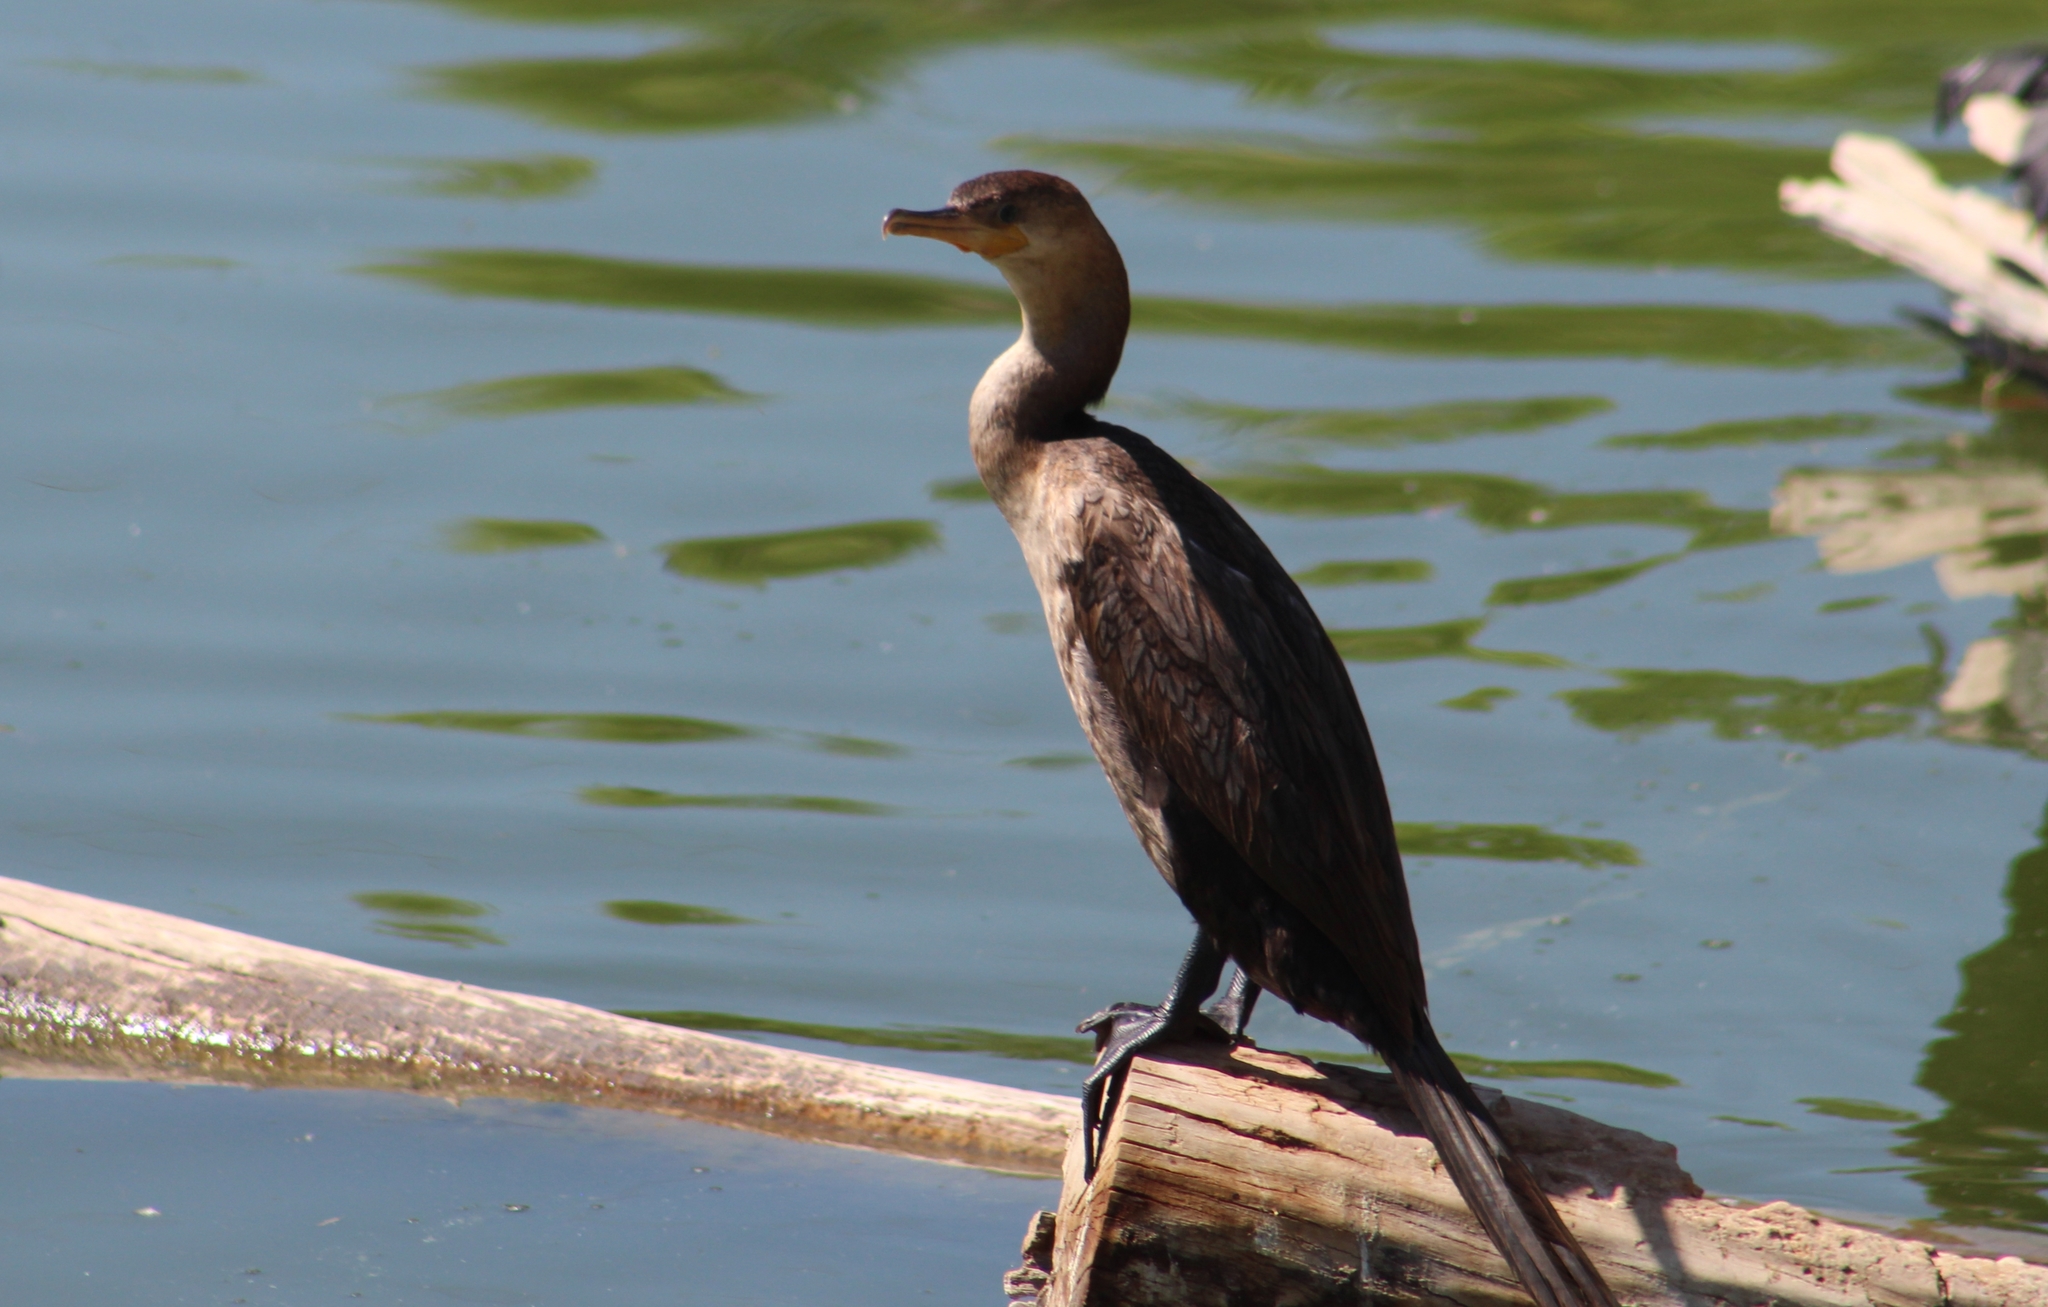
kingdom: Animalia
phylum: Chordata
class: Aves
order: Suliformes
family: Phalacrocoracidae
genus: Phalacrocorax
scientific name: Phalacrocorax auritus
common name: Double-crested cormorant
